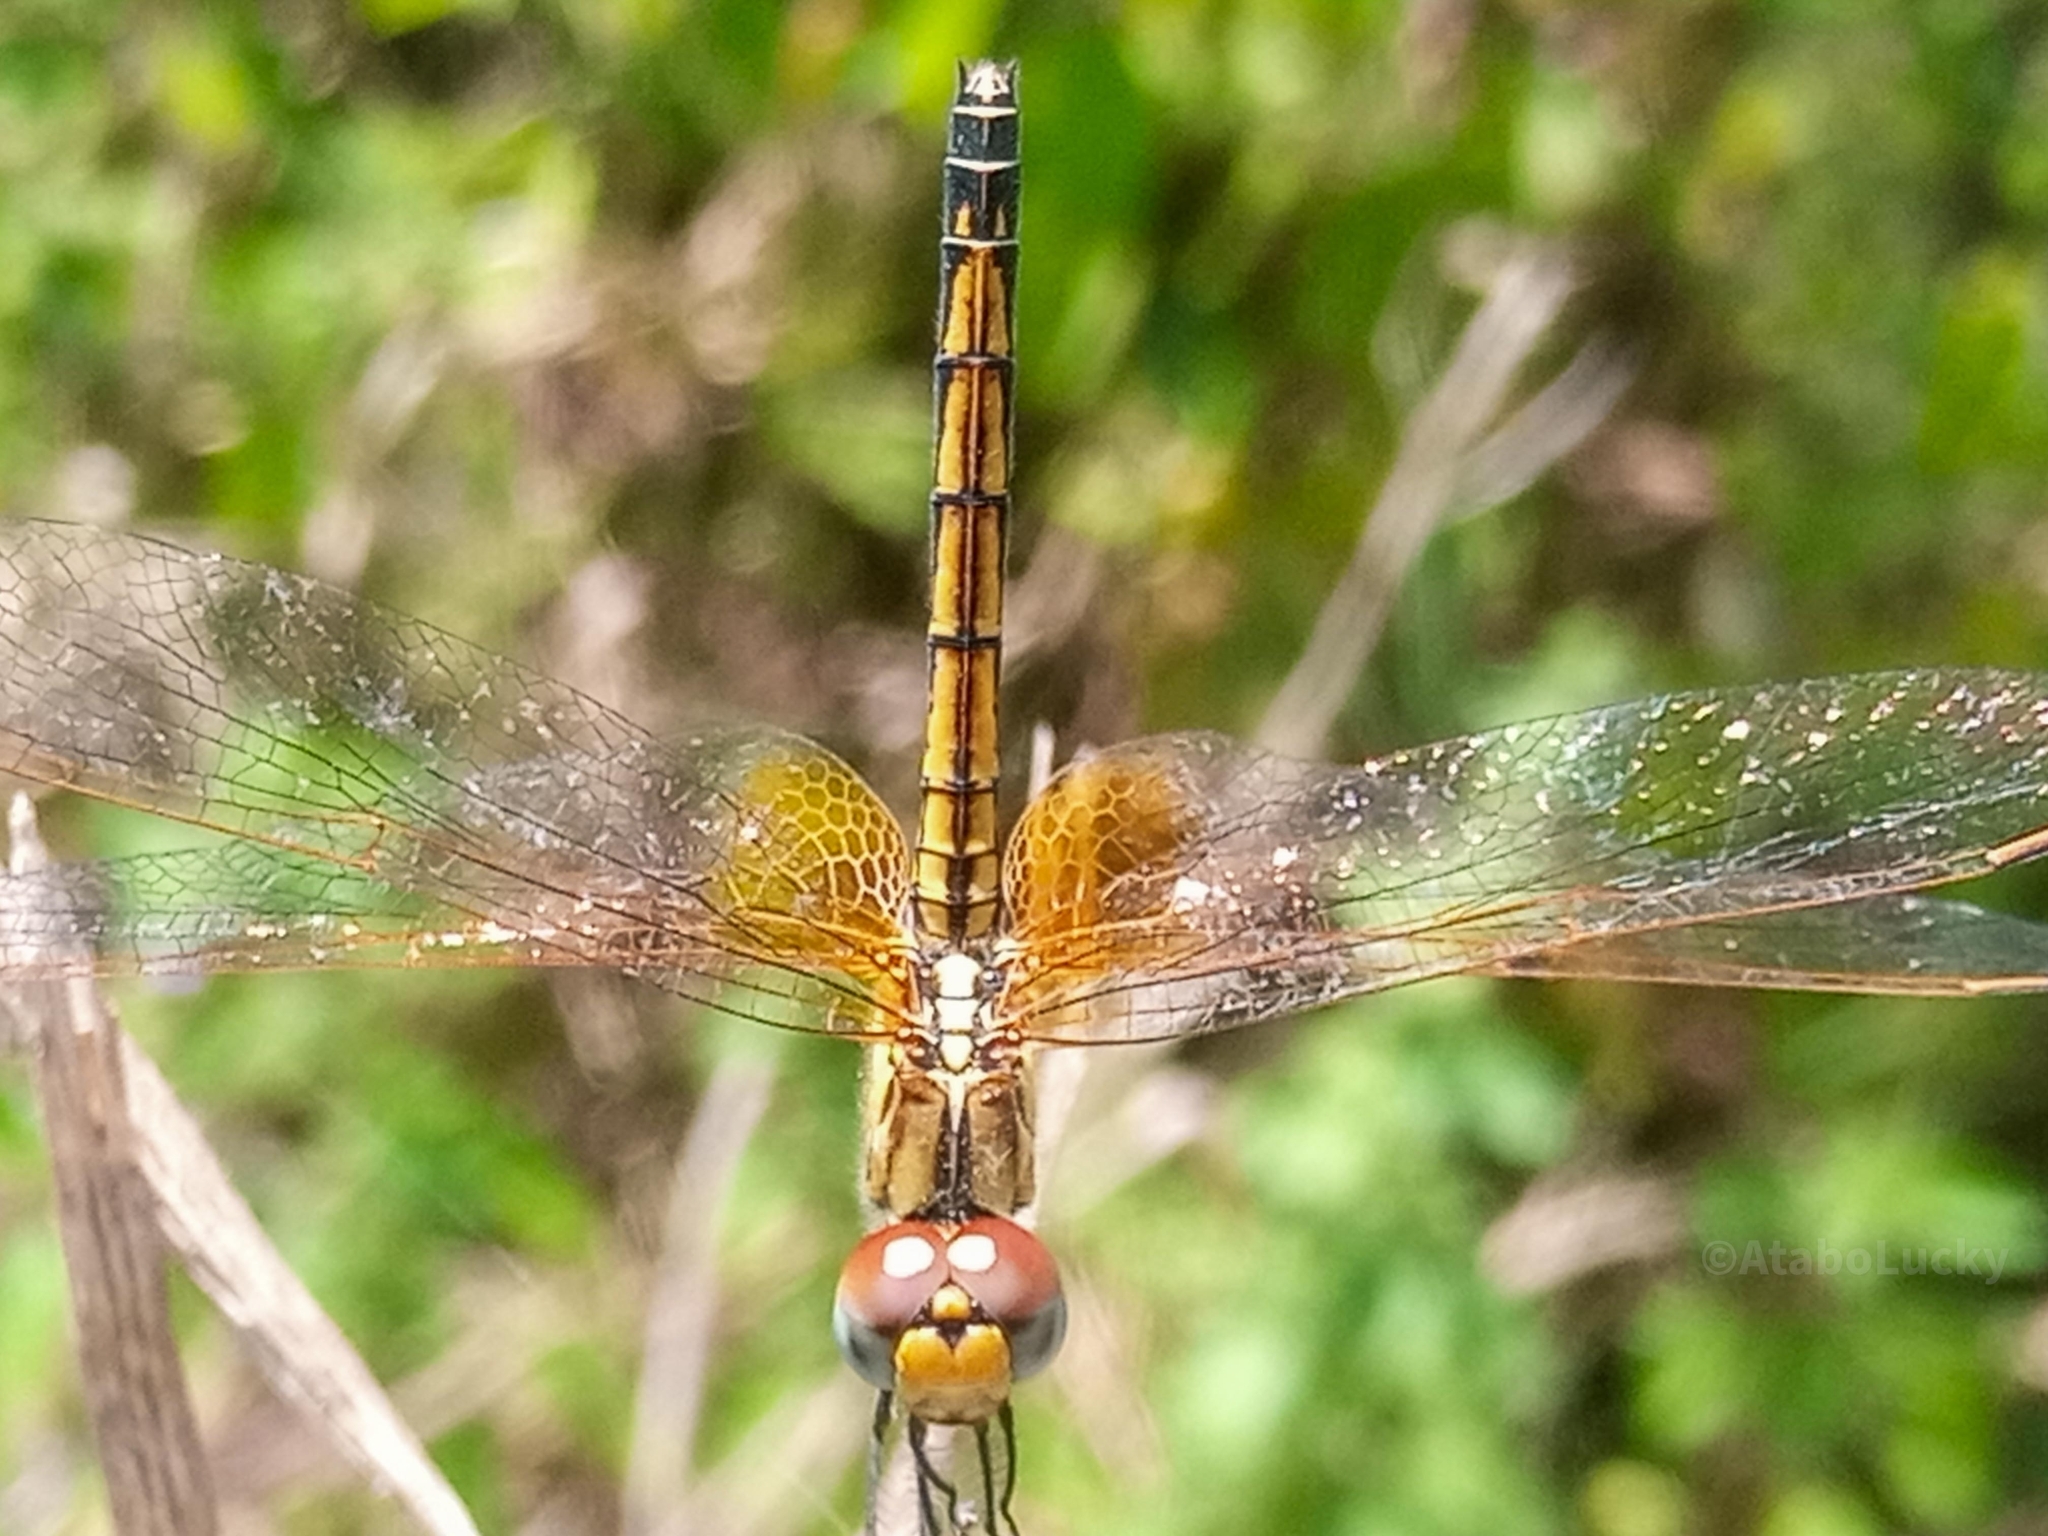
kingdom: Animalia
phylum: Arthropoda
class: Insecta
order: Odonata
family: Libellulidae
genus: Trithemis
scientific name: Trithemis arteriosa
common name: Red-veined dropwing
